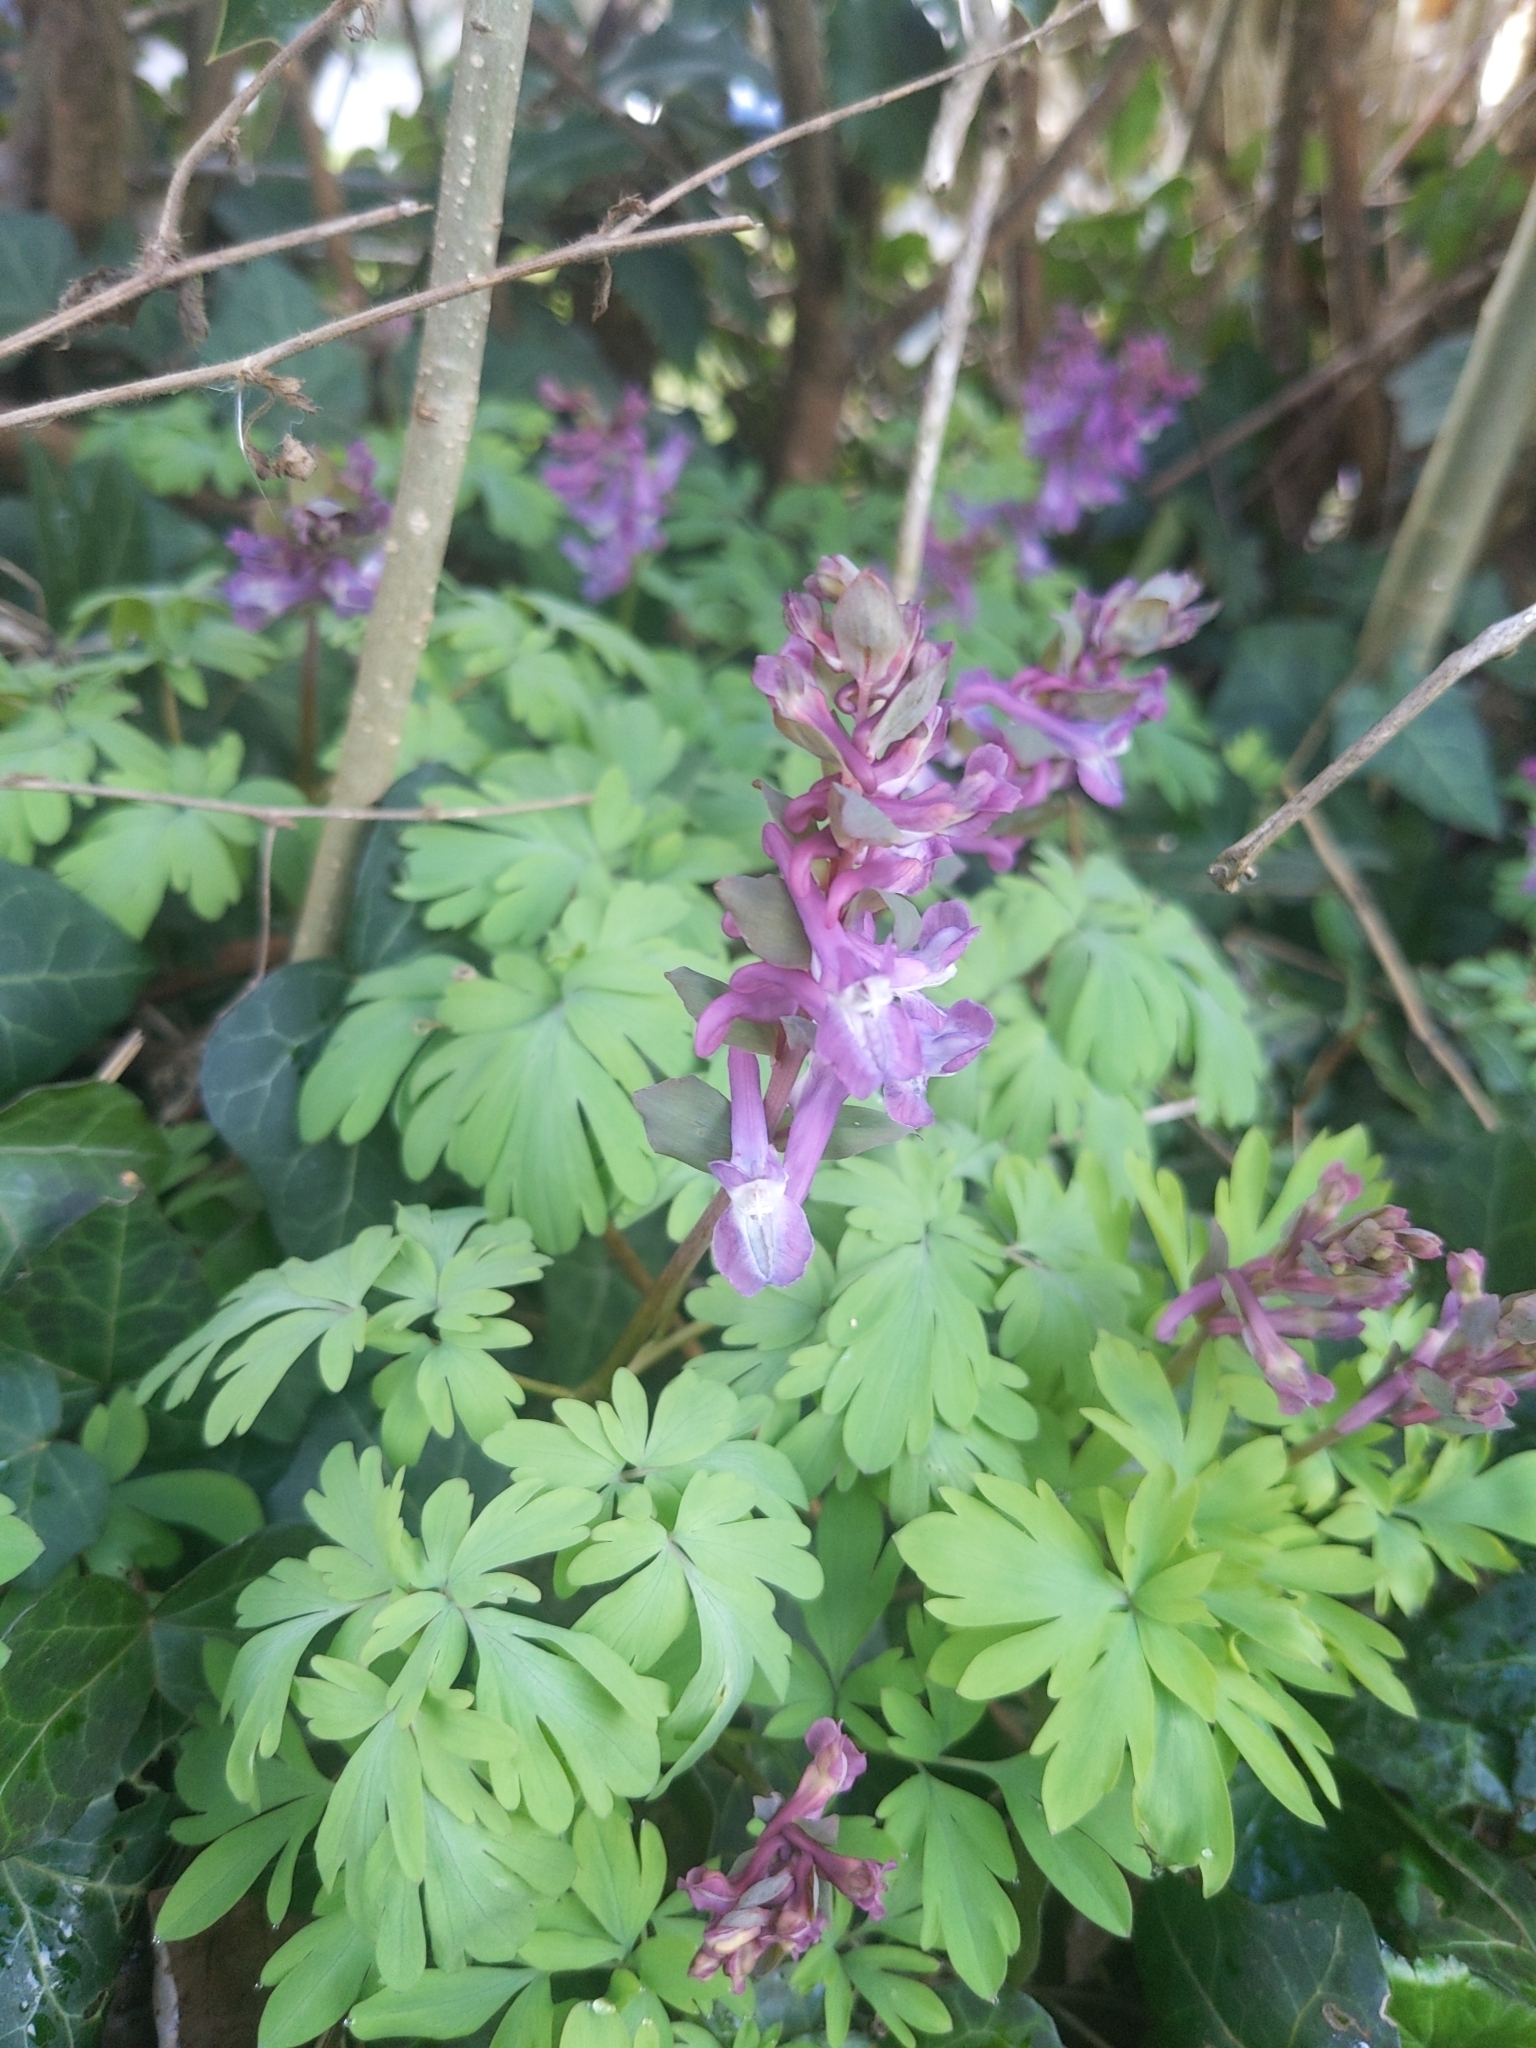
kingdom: Plantae
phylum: Tracheophyta
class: Magnoliopsida
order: Ranunculales
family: Papaveraceae
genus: Corydalis
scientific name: Corydalis cava
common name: Hollowroot
